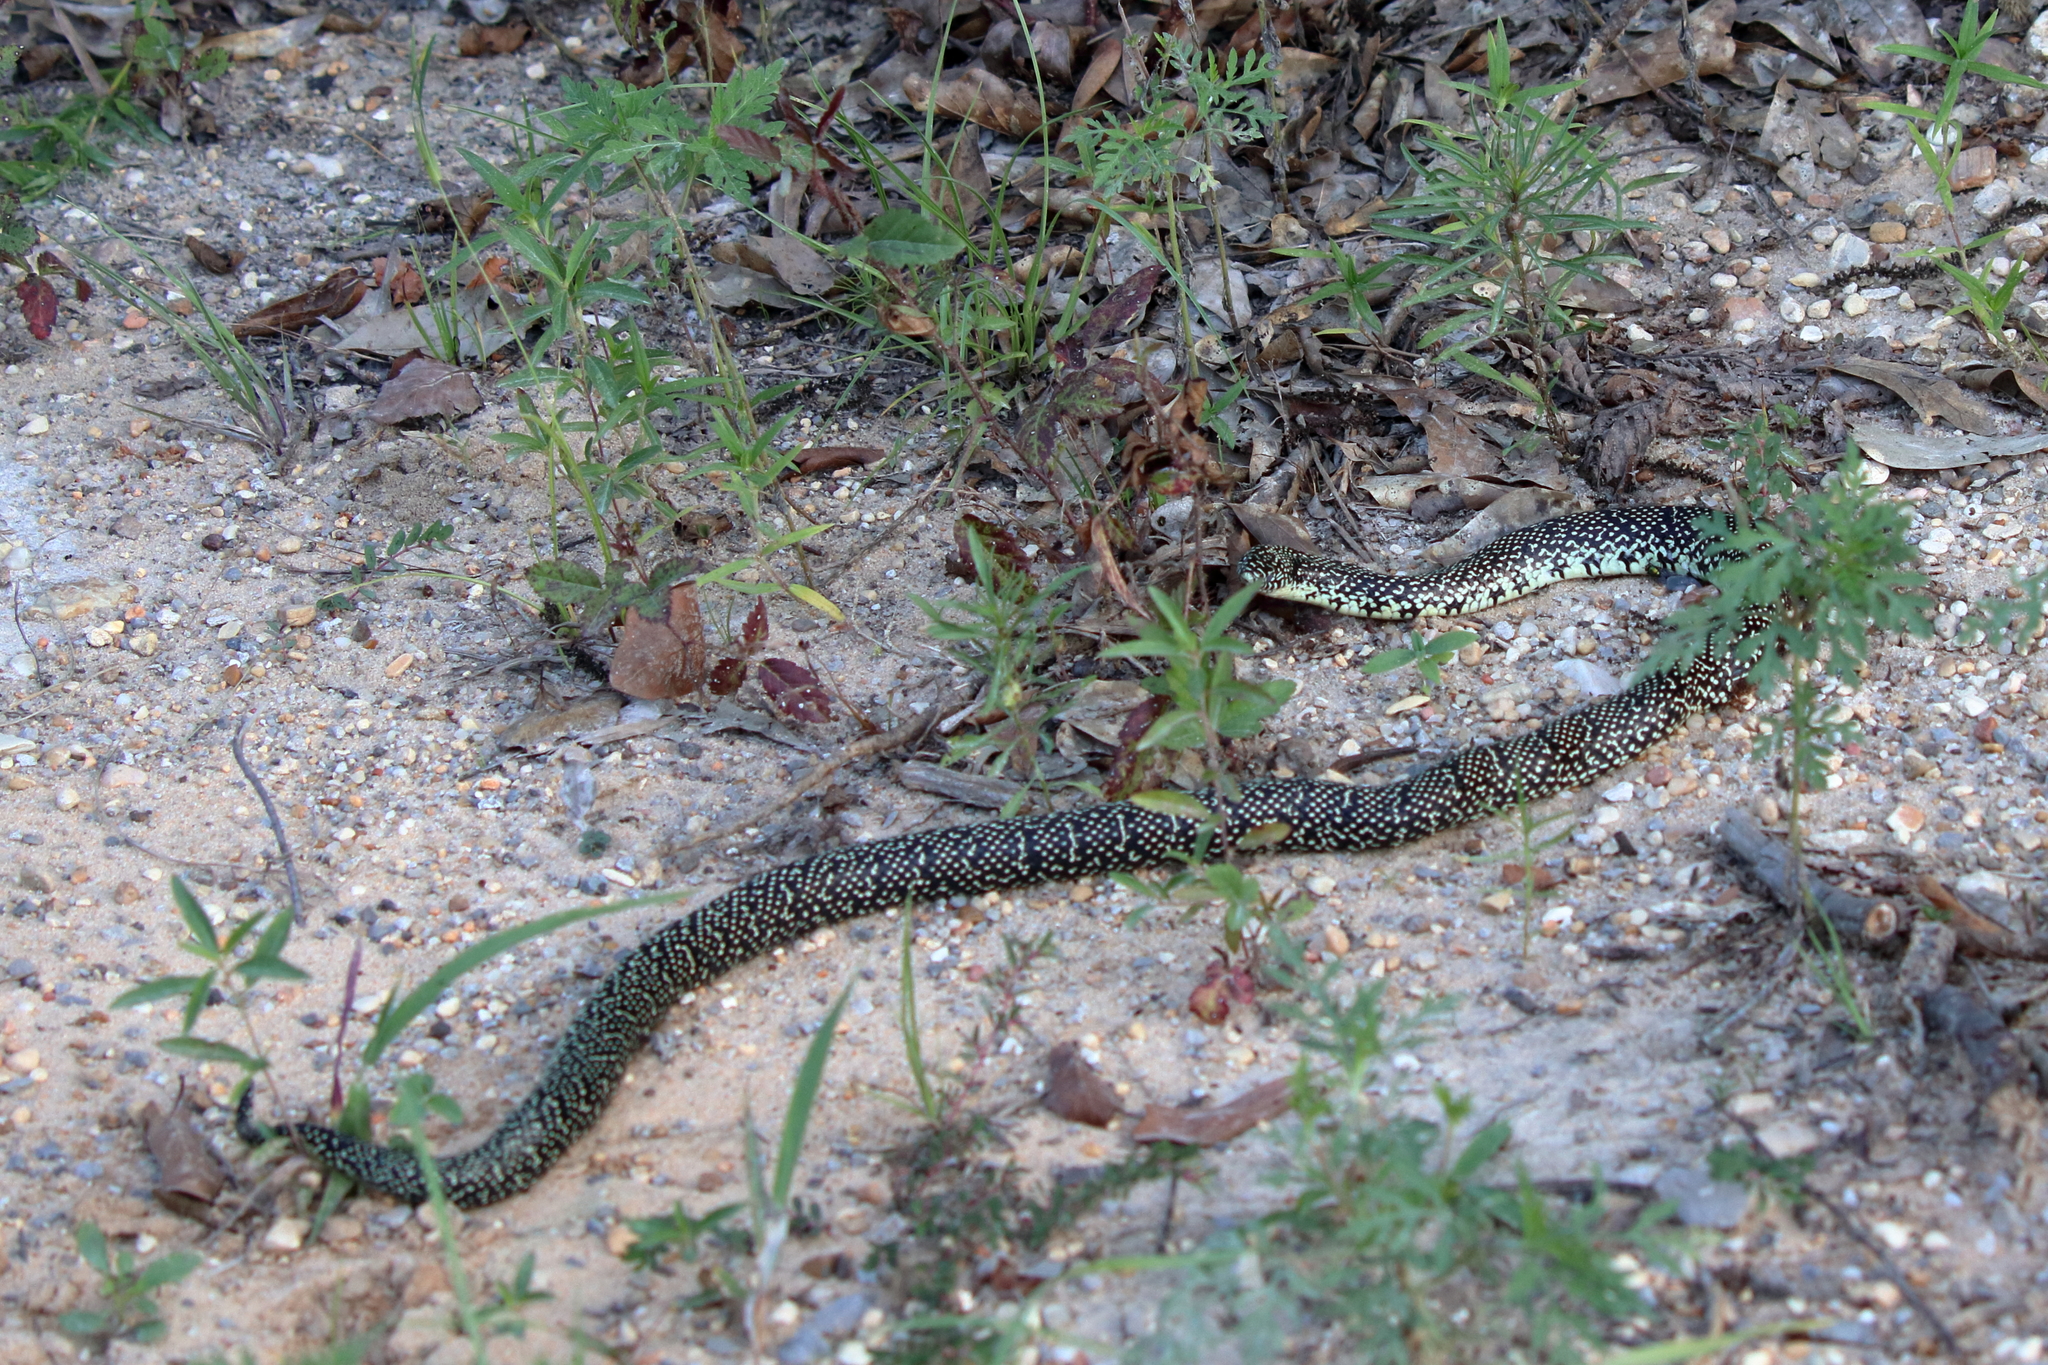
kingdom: Animalia
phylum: Chordata
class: Squamata
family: Colubridae
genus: Lampropeltis
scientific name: Lampropeltis holbrooki
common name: Speckled kingsnake
